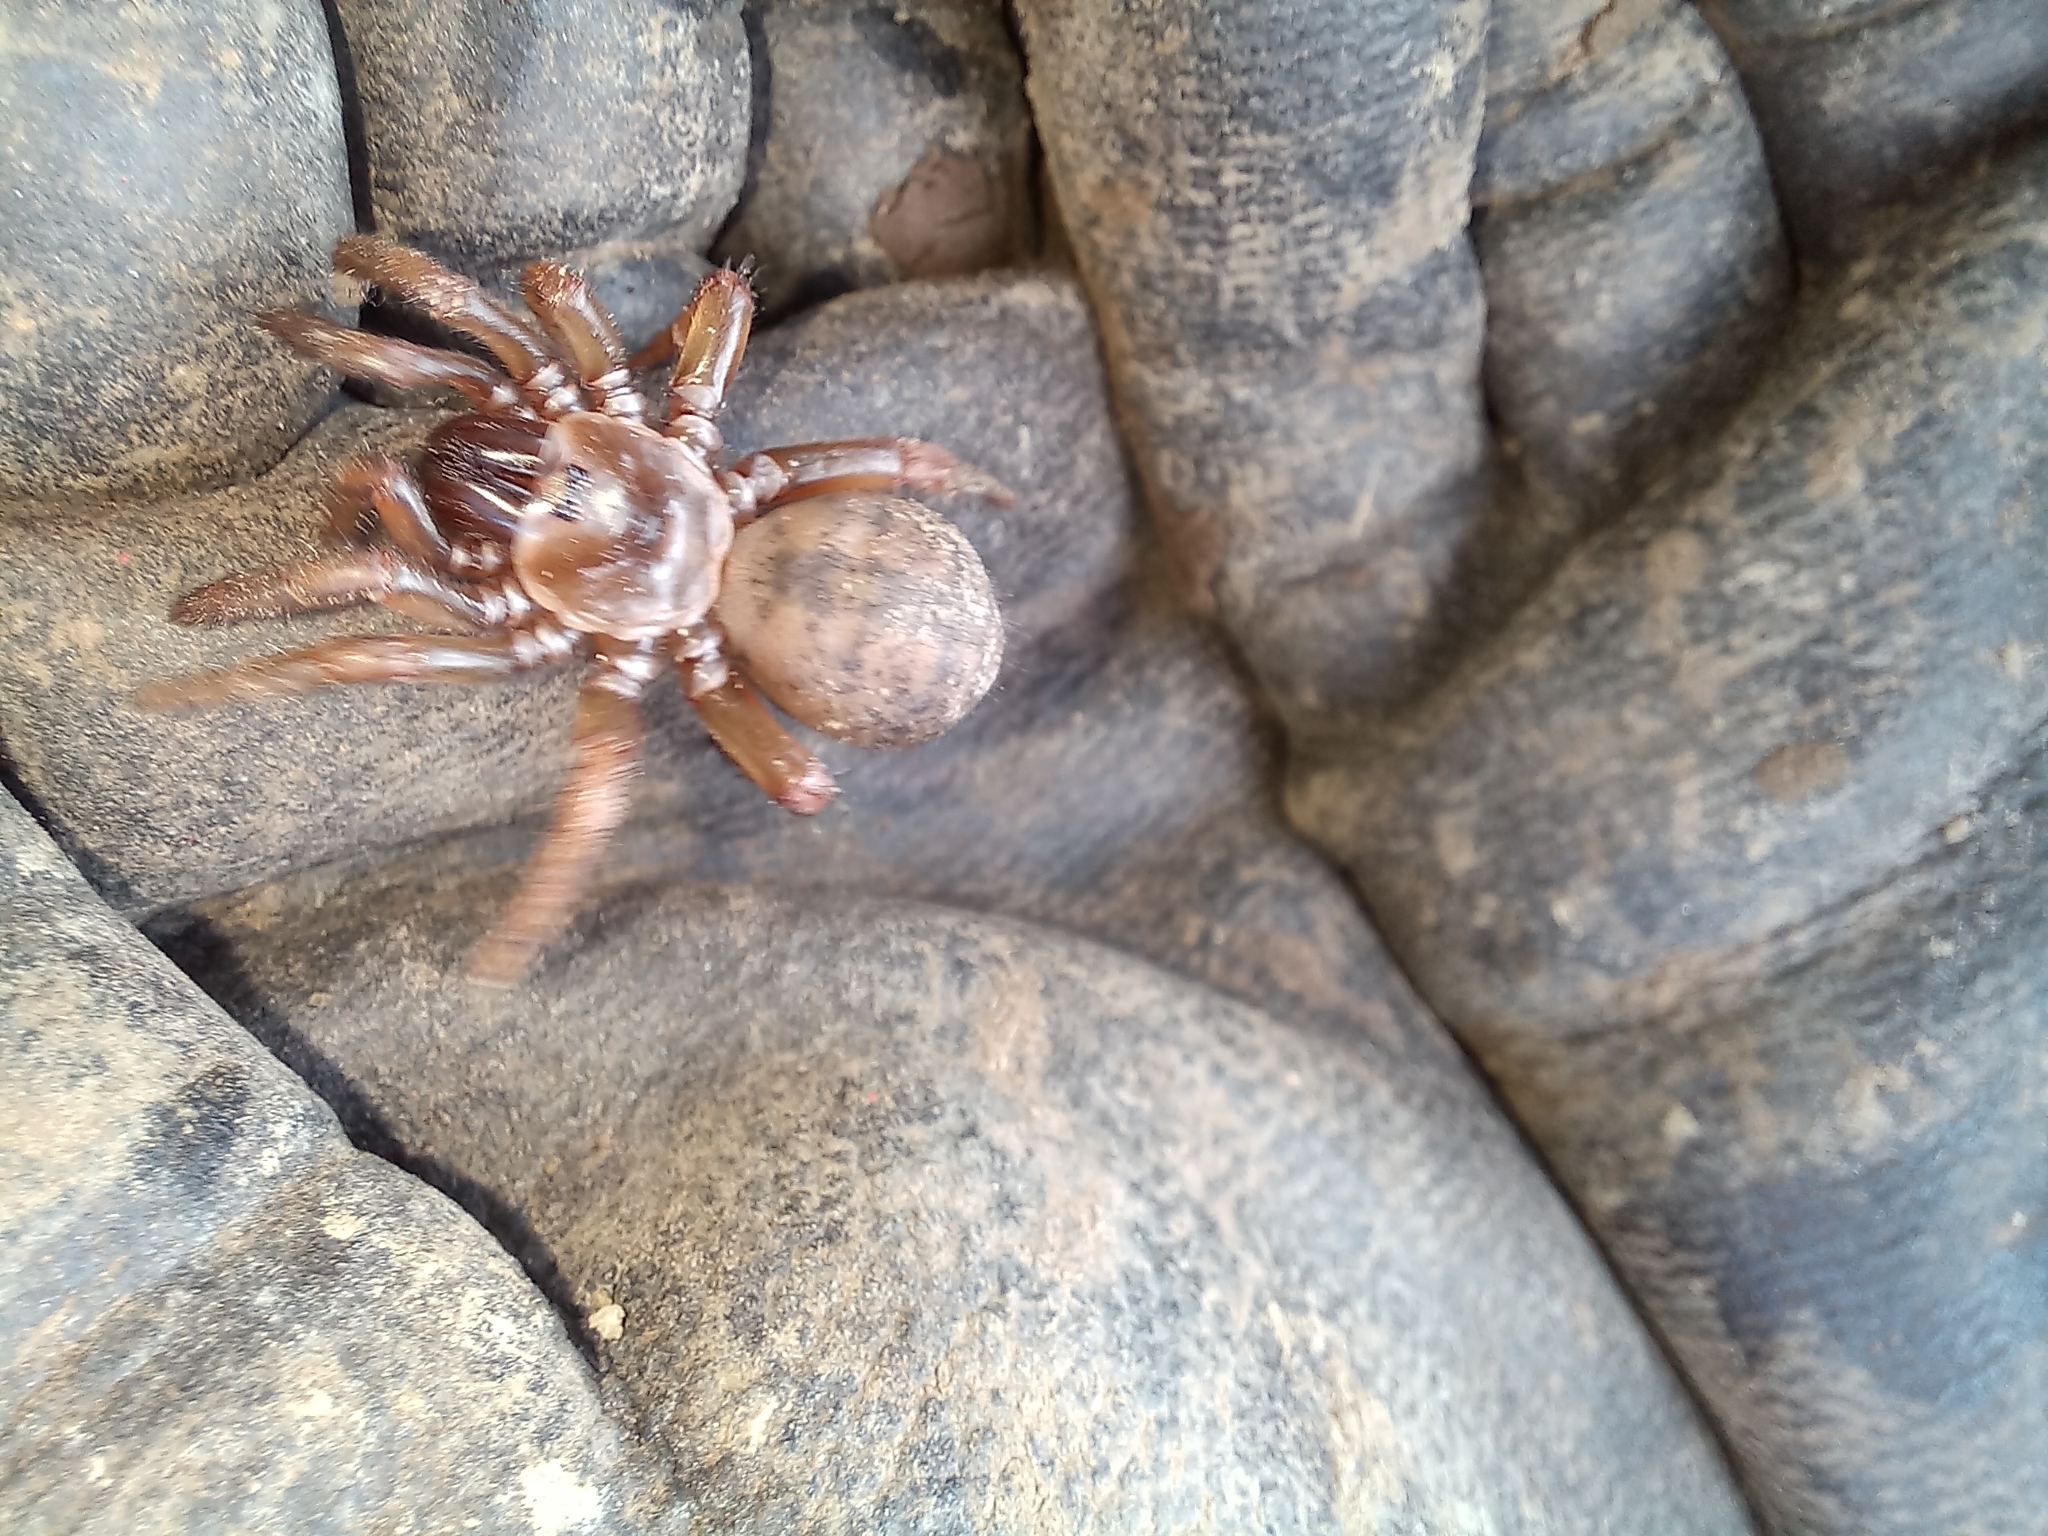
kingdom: Animalia
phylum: Arthropoda
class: Arachnida
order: Araneae
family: Idiopidae
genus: Cantuaria
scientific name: Cantuaria
